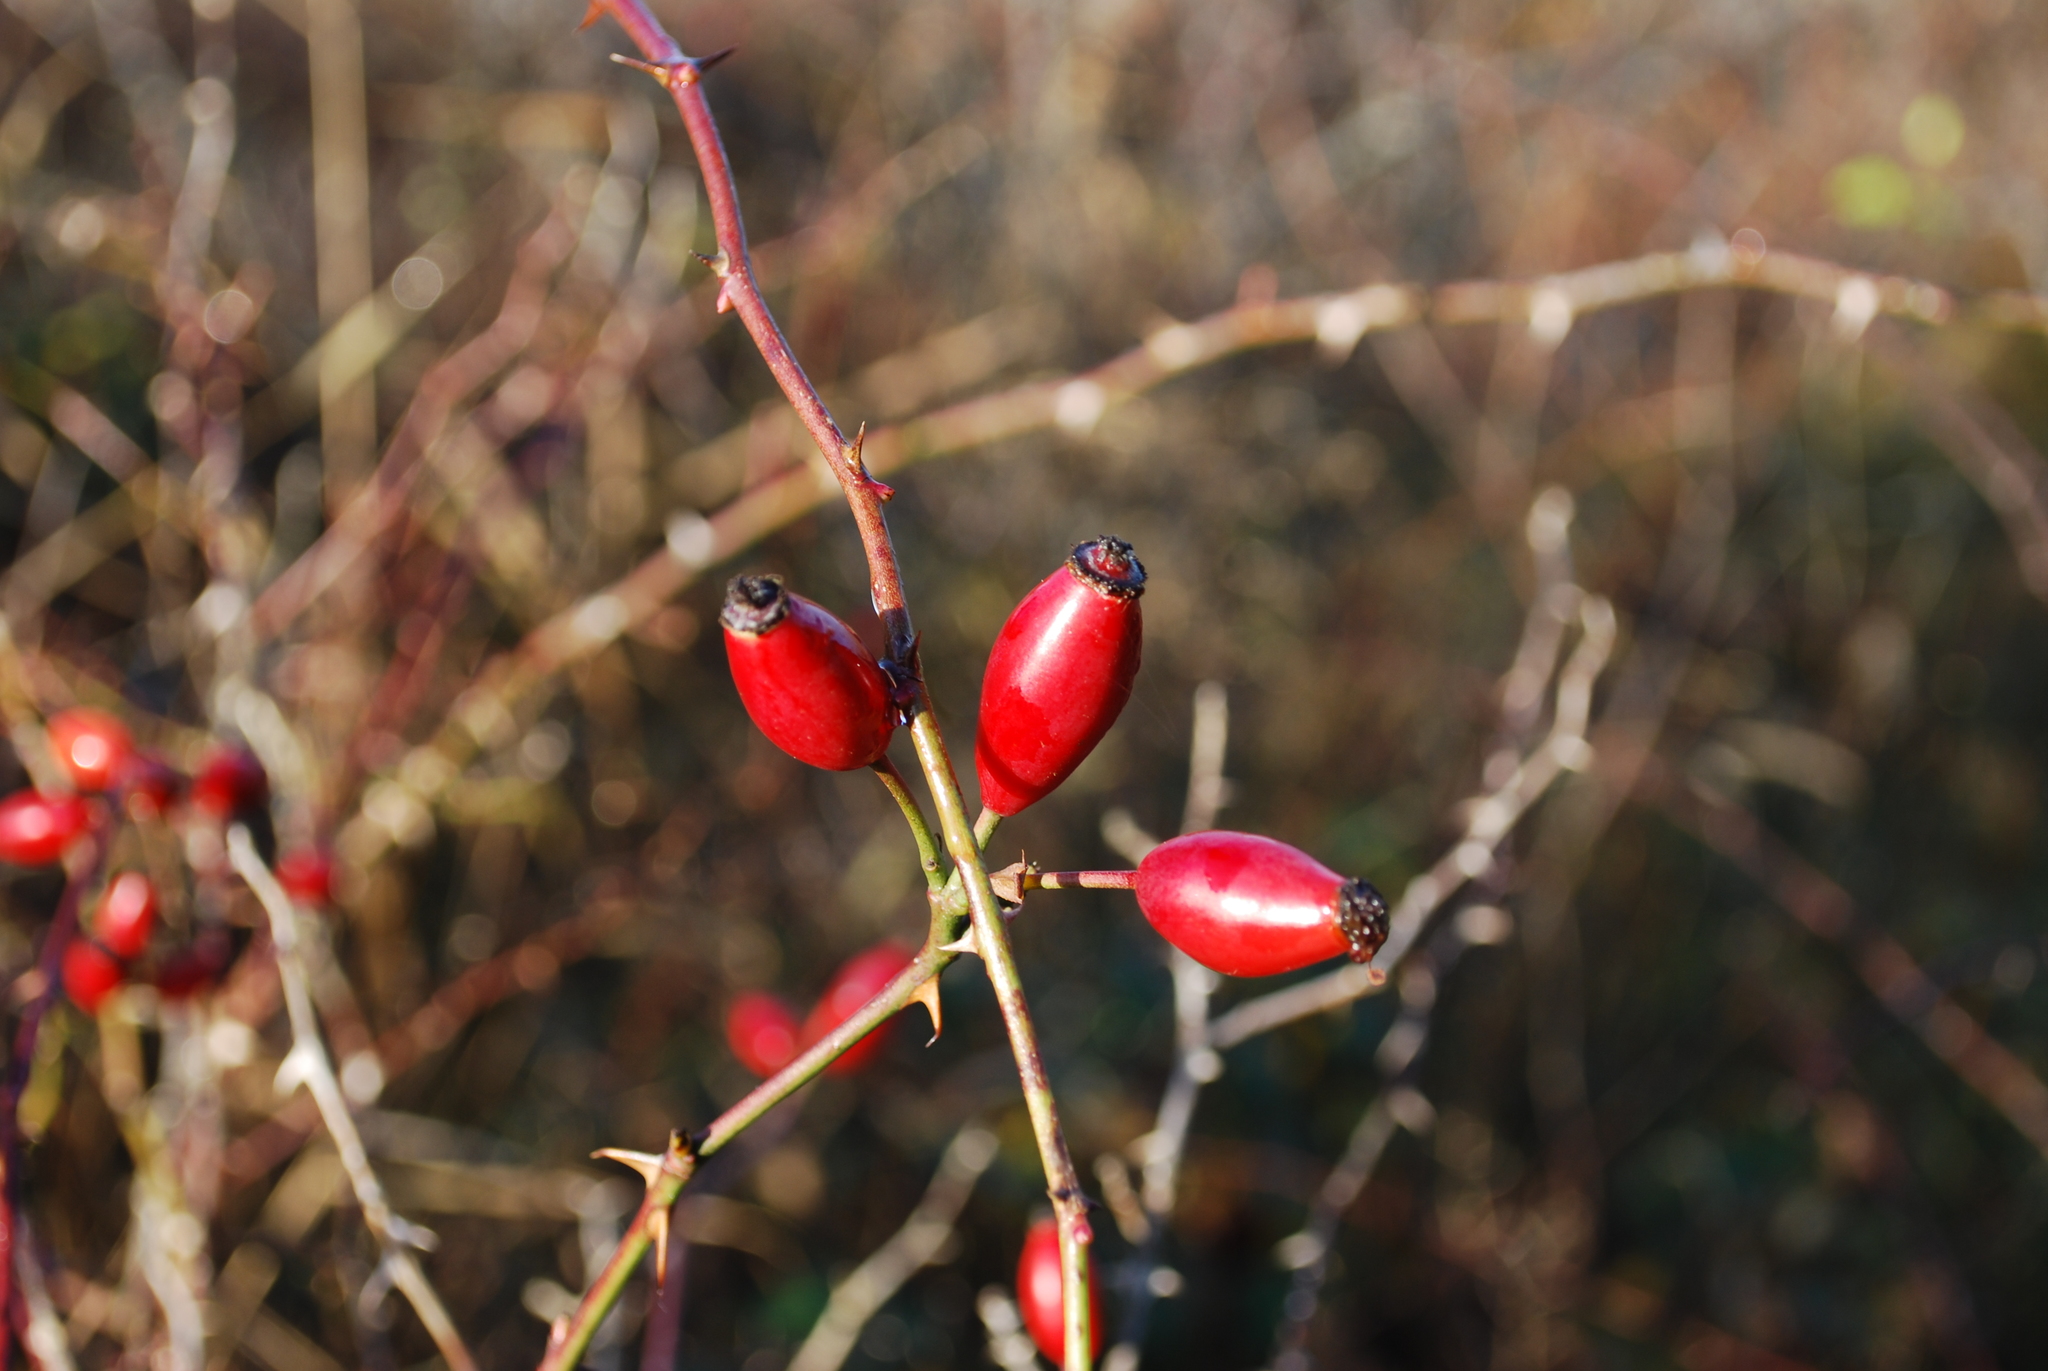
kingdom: Plantae
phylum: Tracheophyta
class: Magnoliopsida
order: Rosales
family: Rosaceae
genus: Rosa
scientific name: Rosa canina
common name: Dog rose
